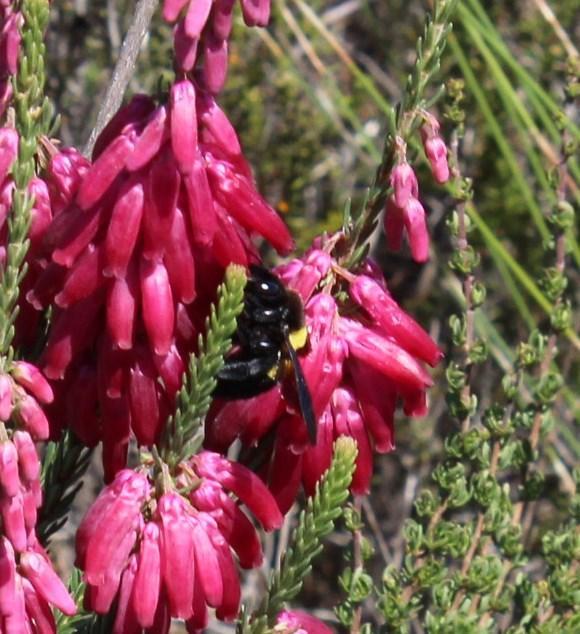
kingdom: Plantae
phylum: Tracheophyta
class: Magnoliopsida
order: Ericales
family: Ericaceae
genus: Erica
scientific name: Erica mammosa
